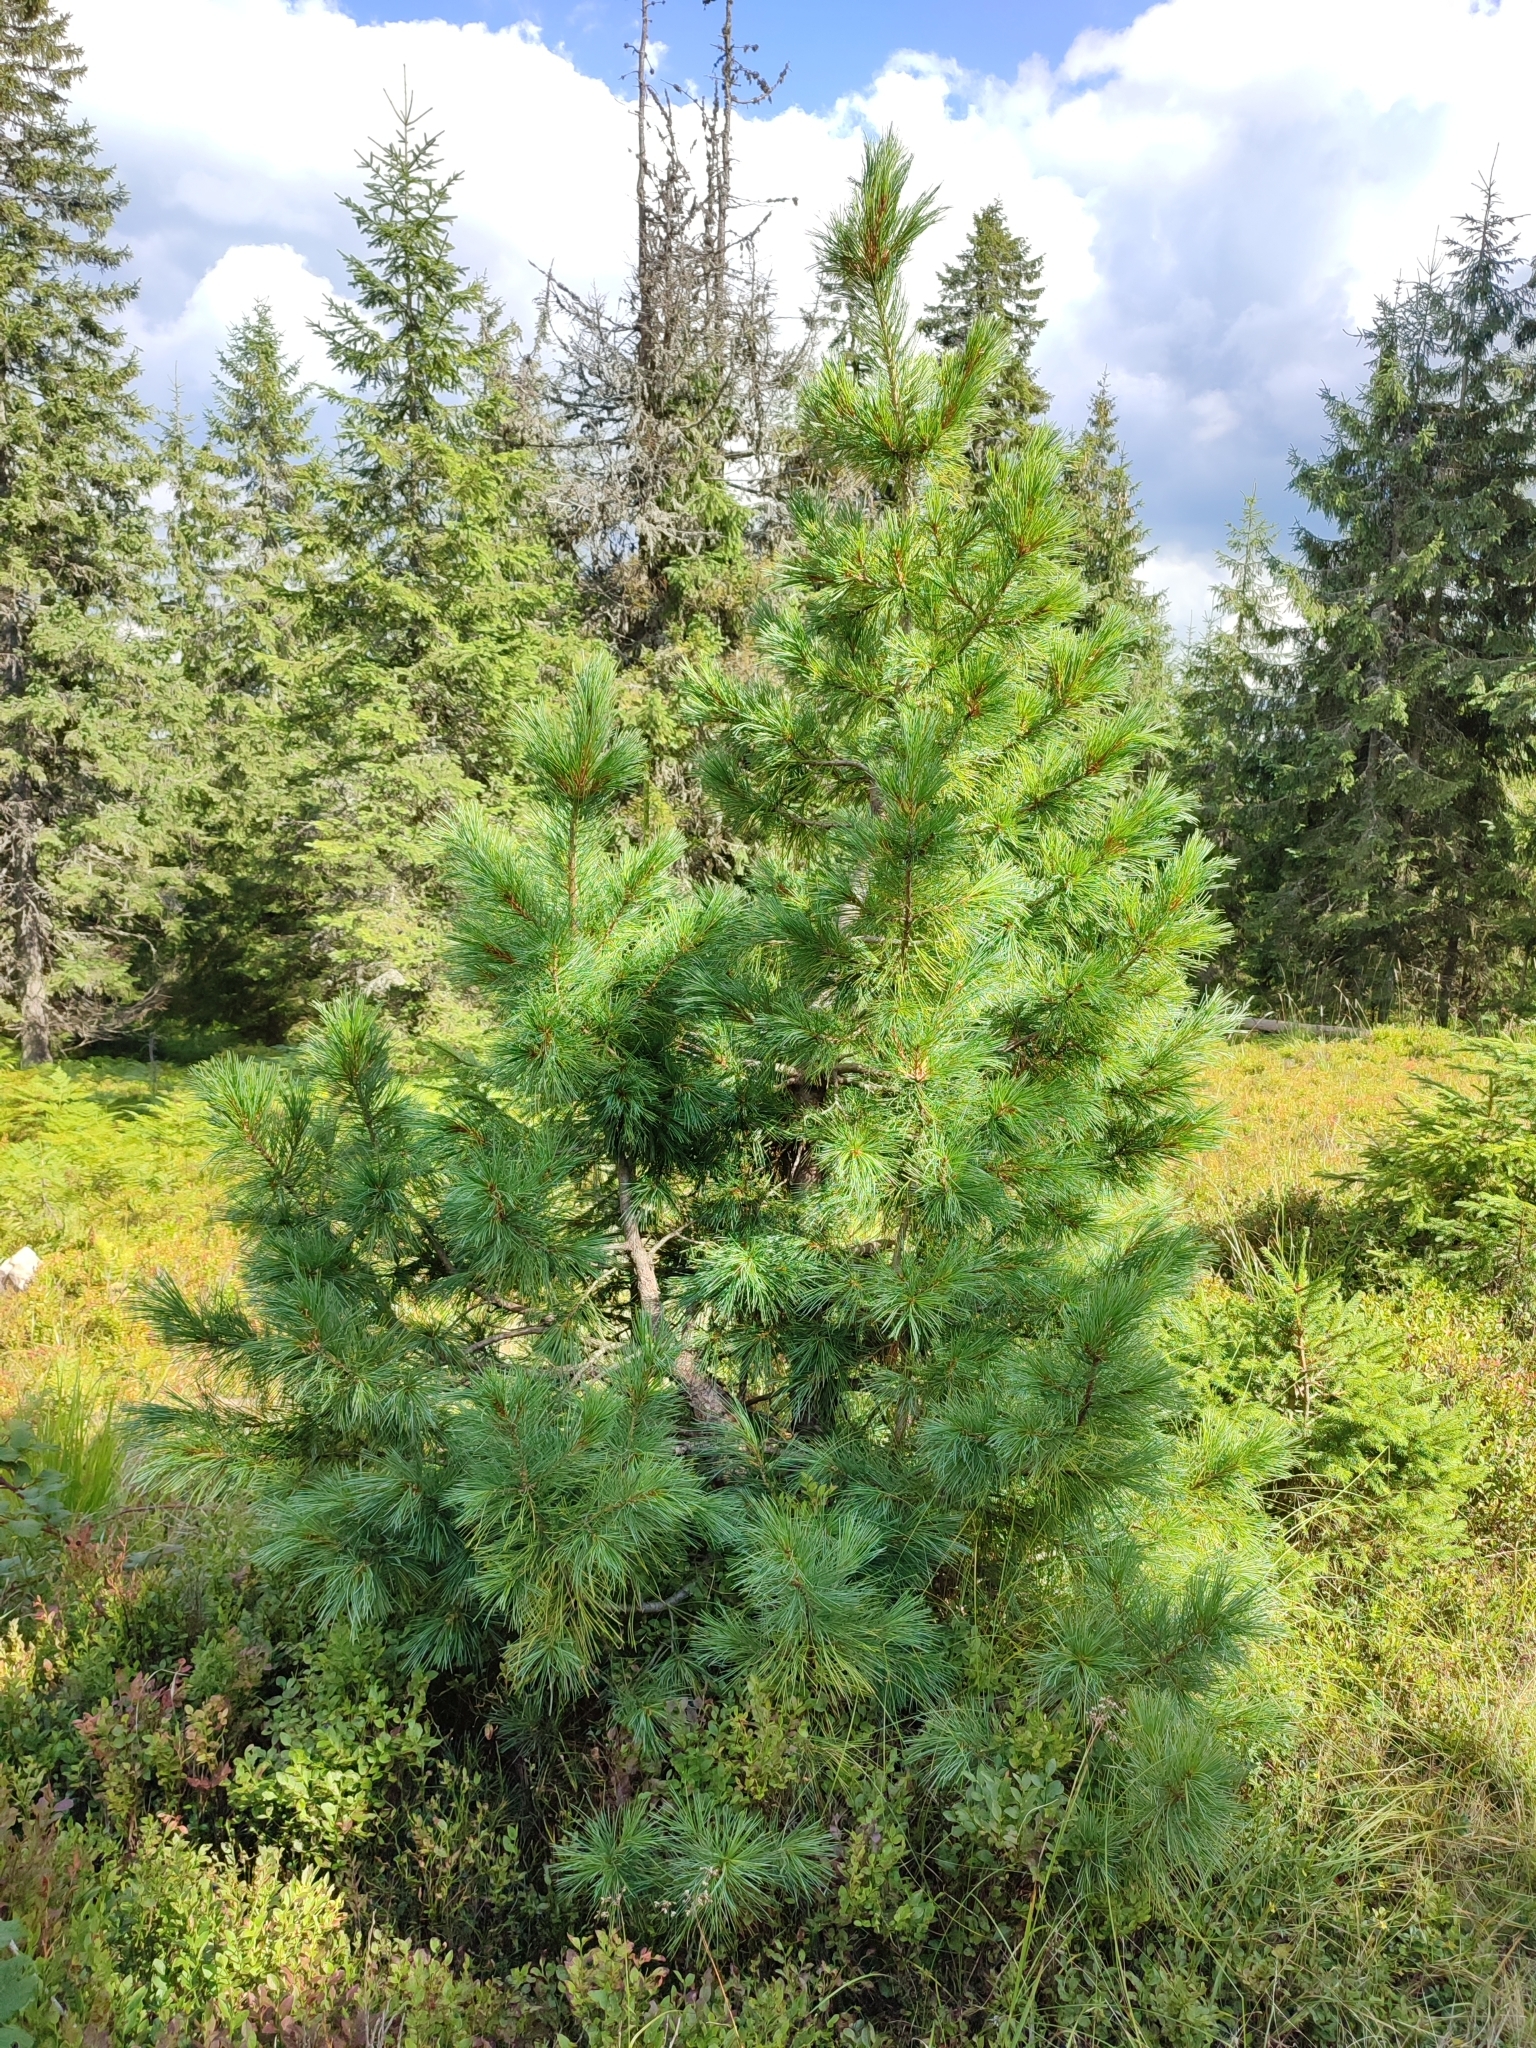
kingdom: Plantae
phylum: Tracheophyta
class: Pinopsida
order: Pinales
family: Pinaceae
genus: Pinus
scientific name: Pinus cembra
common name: Arolla pine
